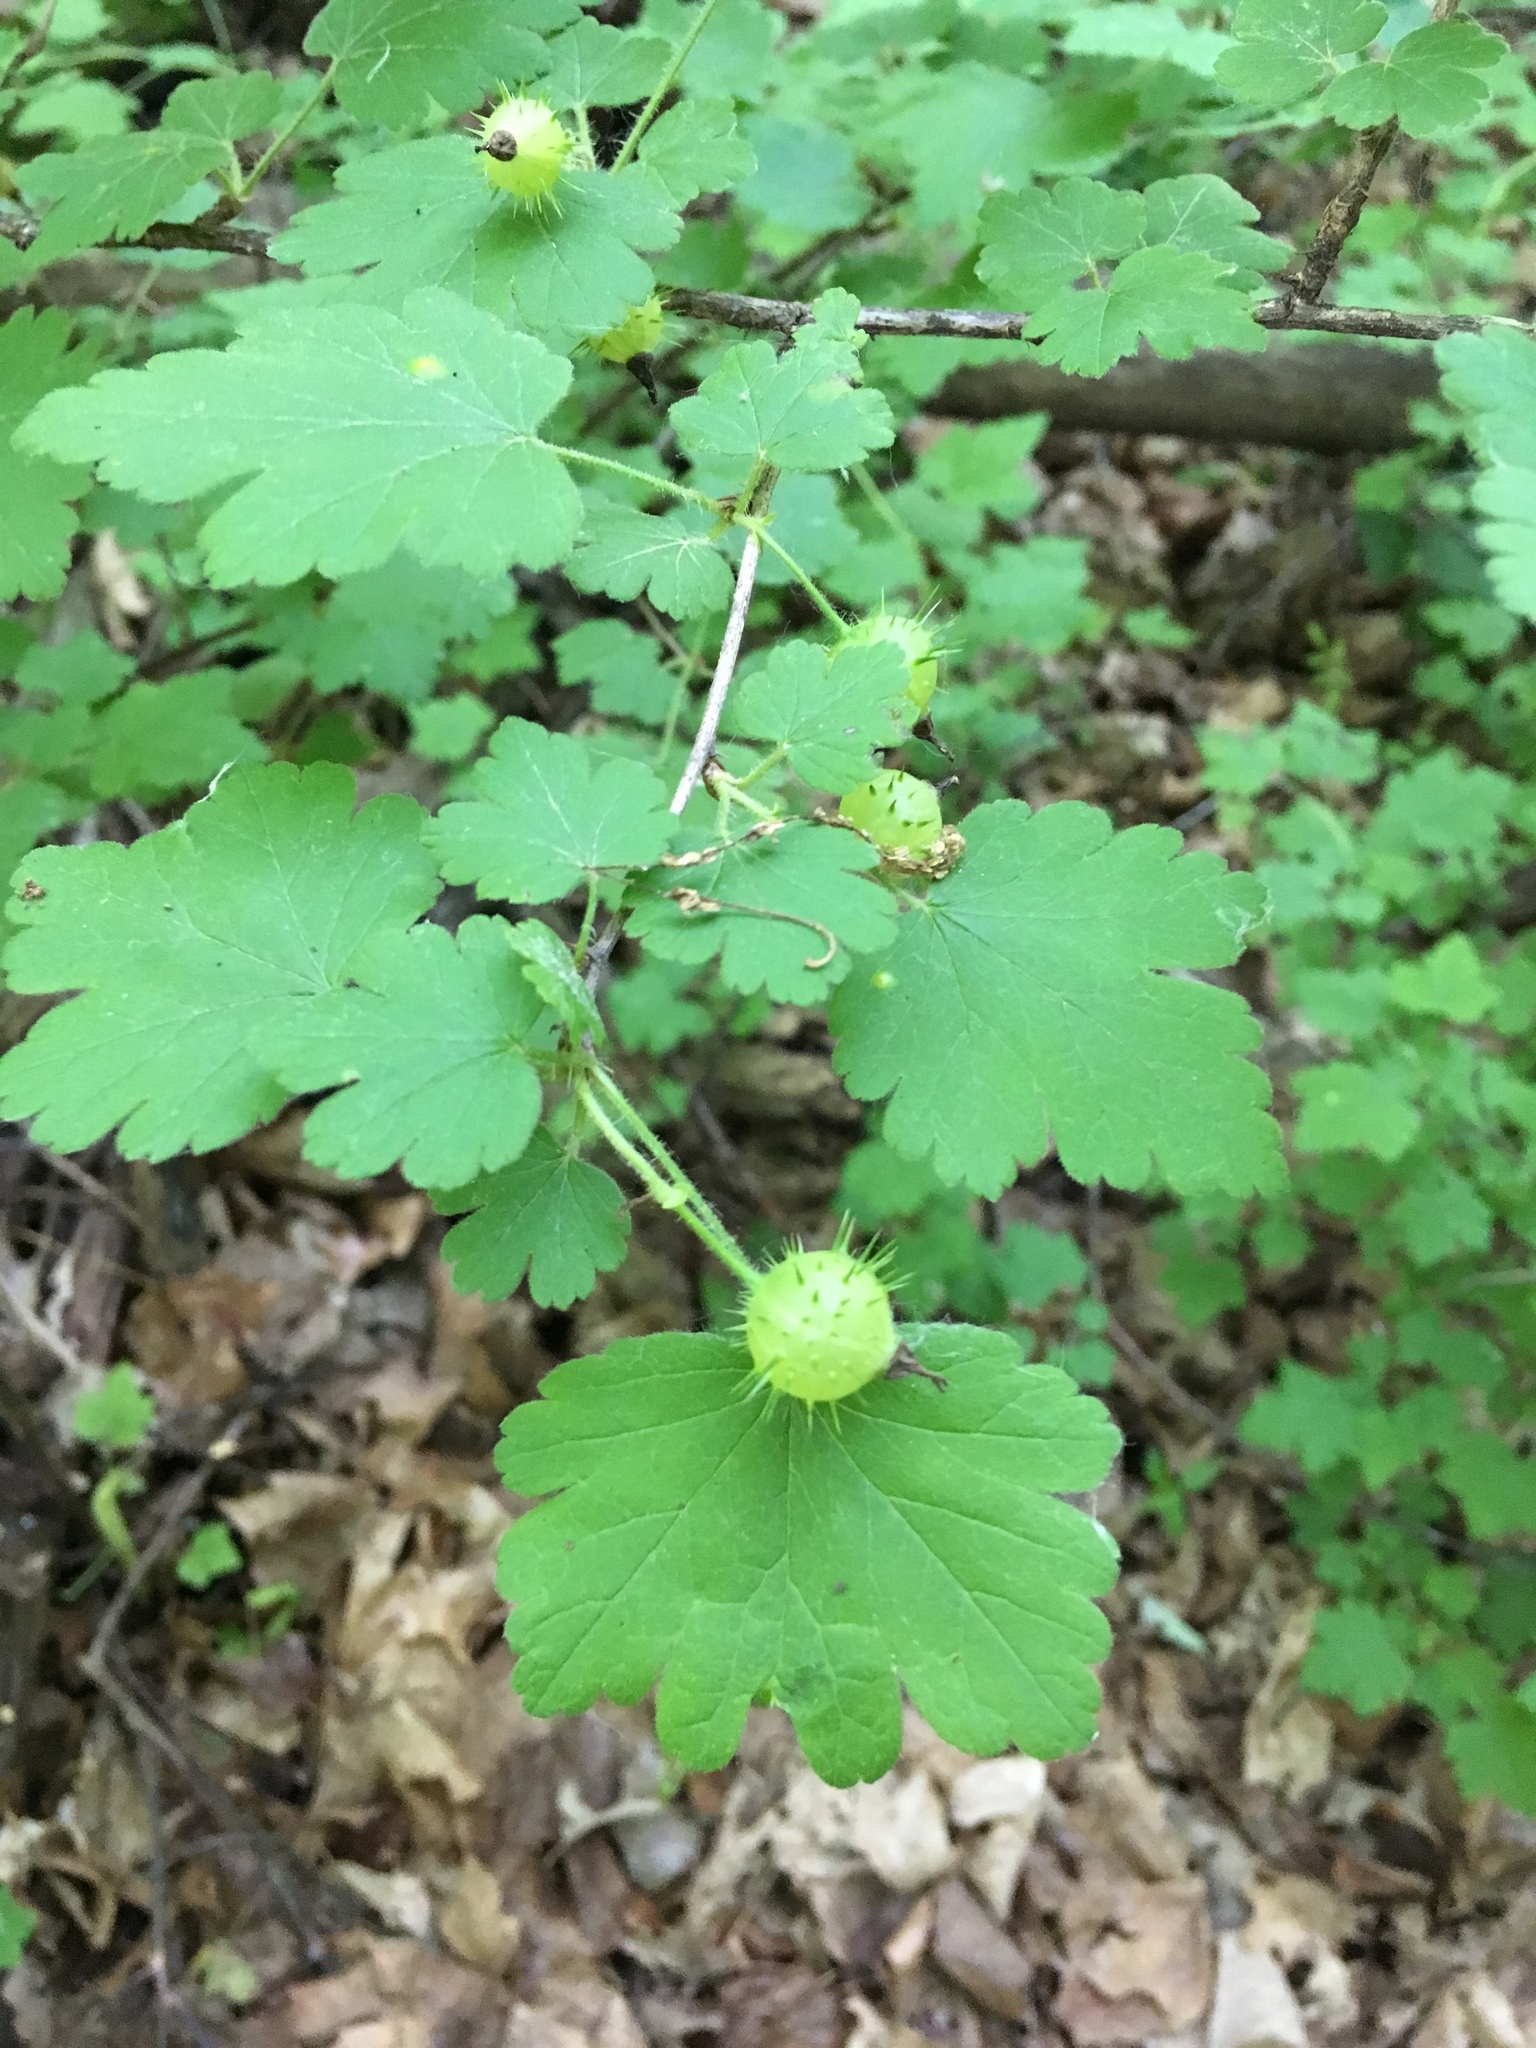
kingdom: Plantae
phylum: Tracheophyta
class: Magnoliopsida
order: Saxifragales
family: Grossulariaceae
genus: Ribes
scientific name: Ribes cynosbati
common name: American gooseberry
